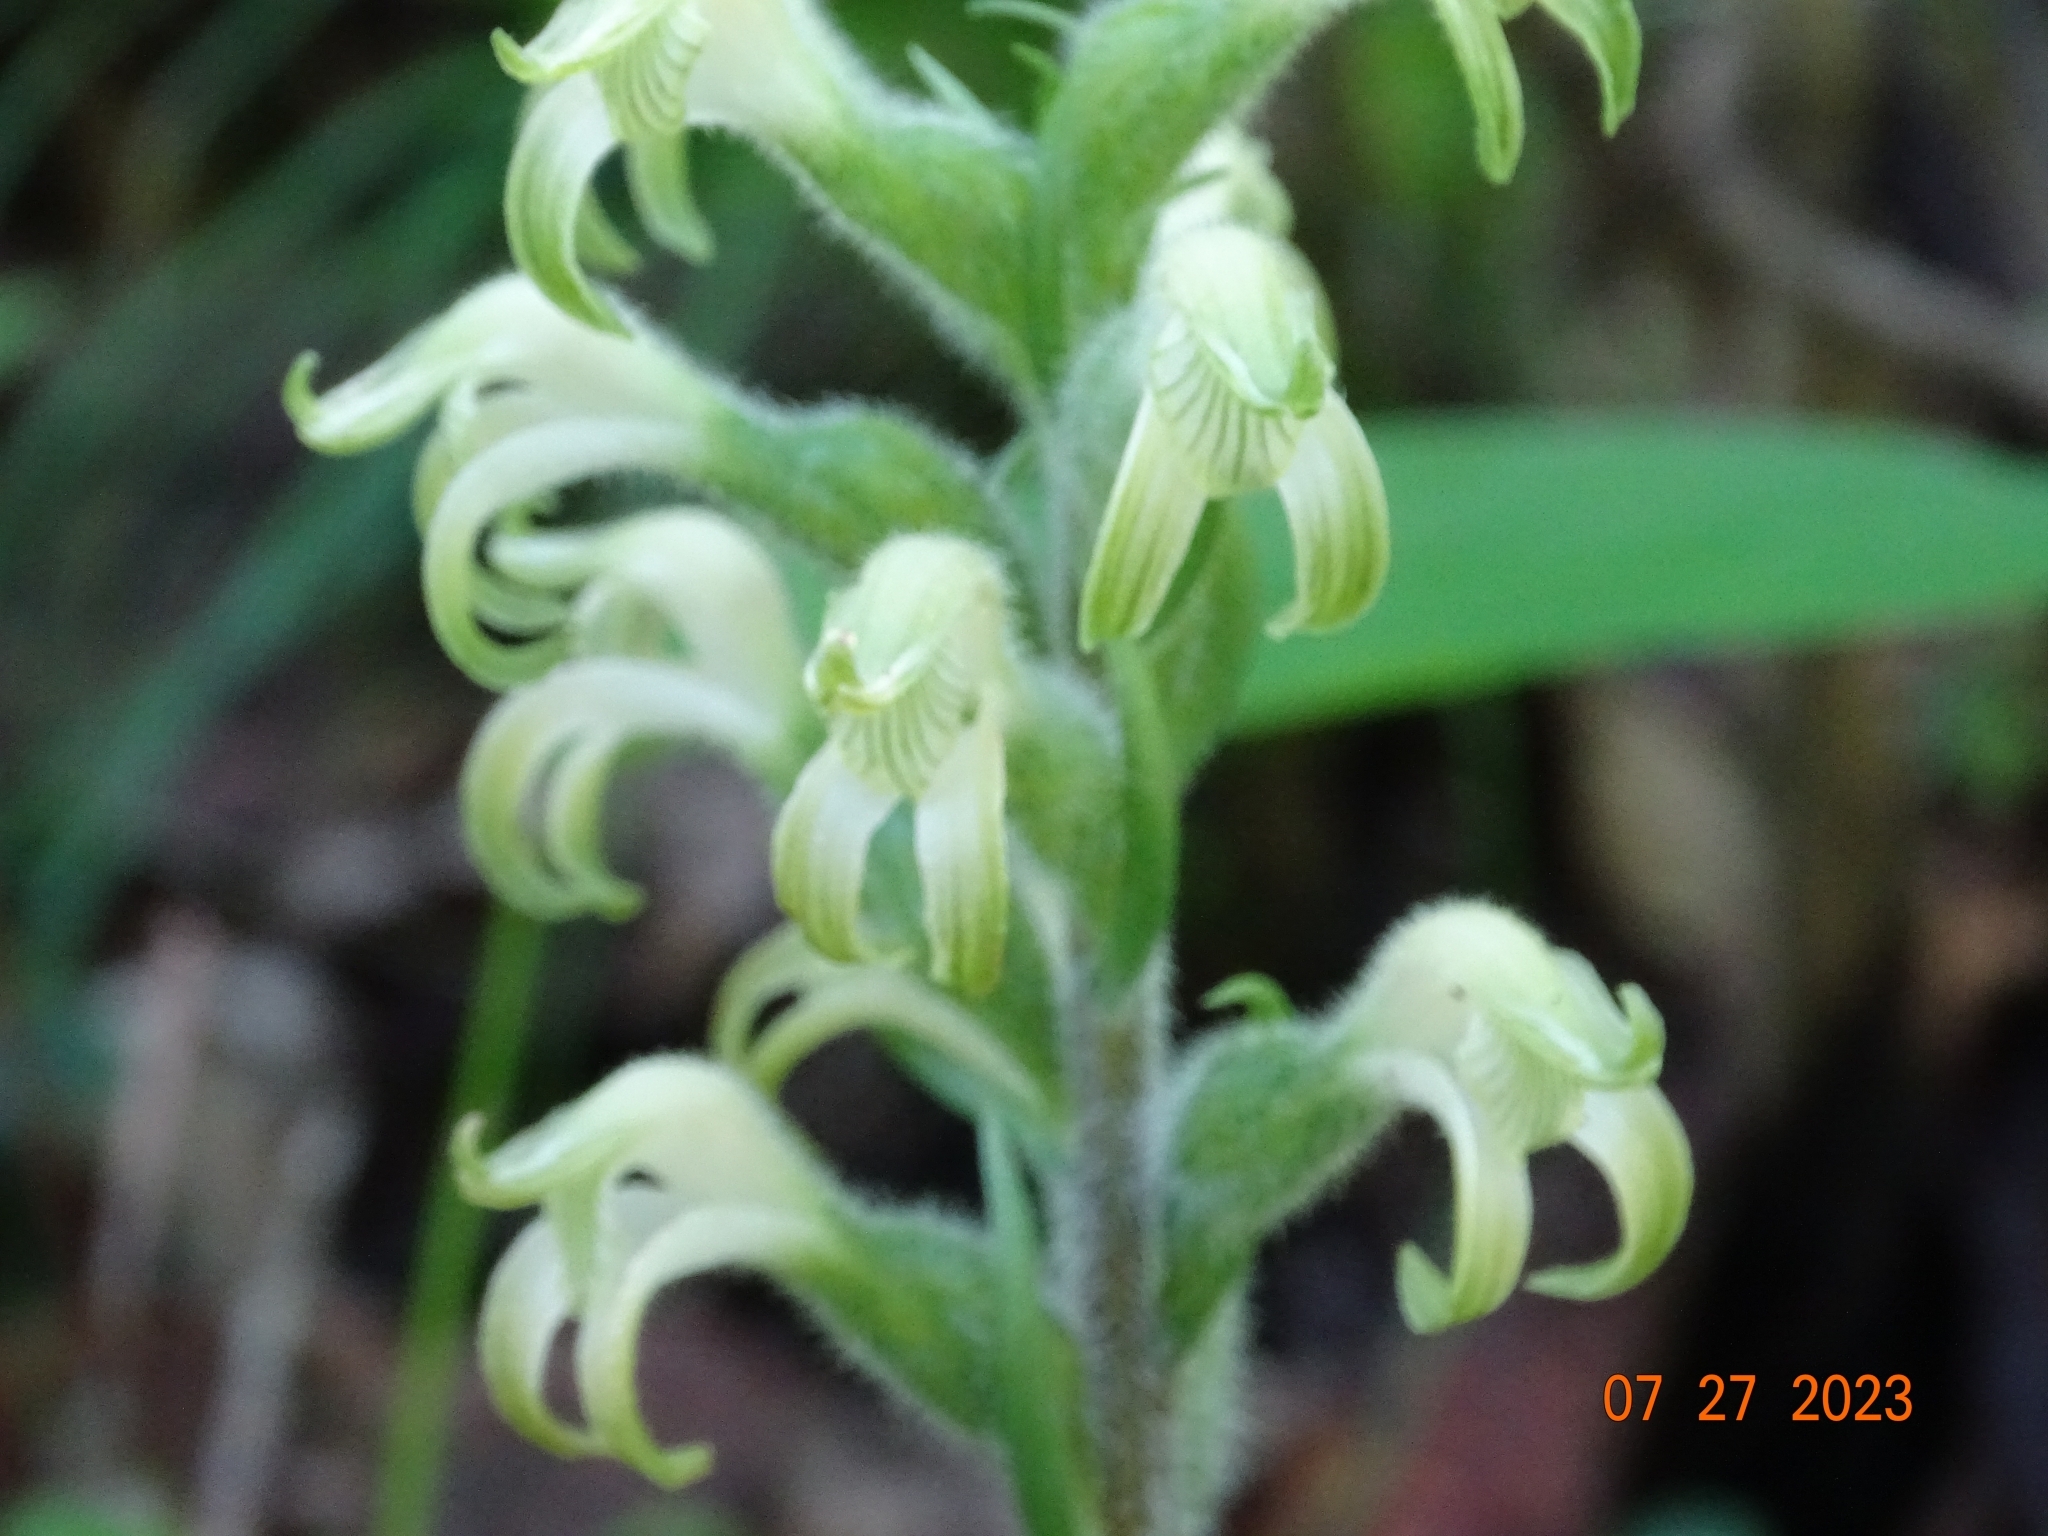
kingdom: Plantae
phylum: Tracheophyta
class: Liliopsida
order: Asparagales
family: Orchidaceae
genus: Sarcoglottis
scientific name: Sarcoglottis rosulata
